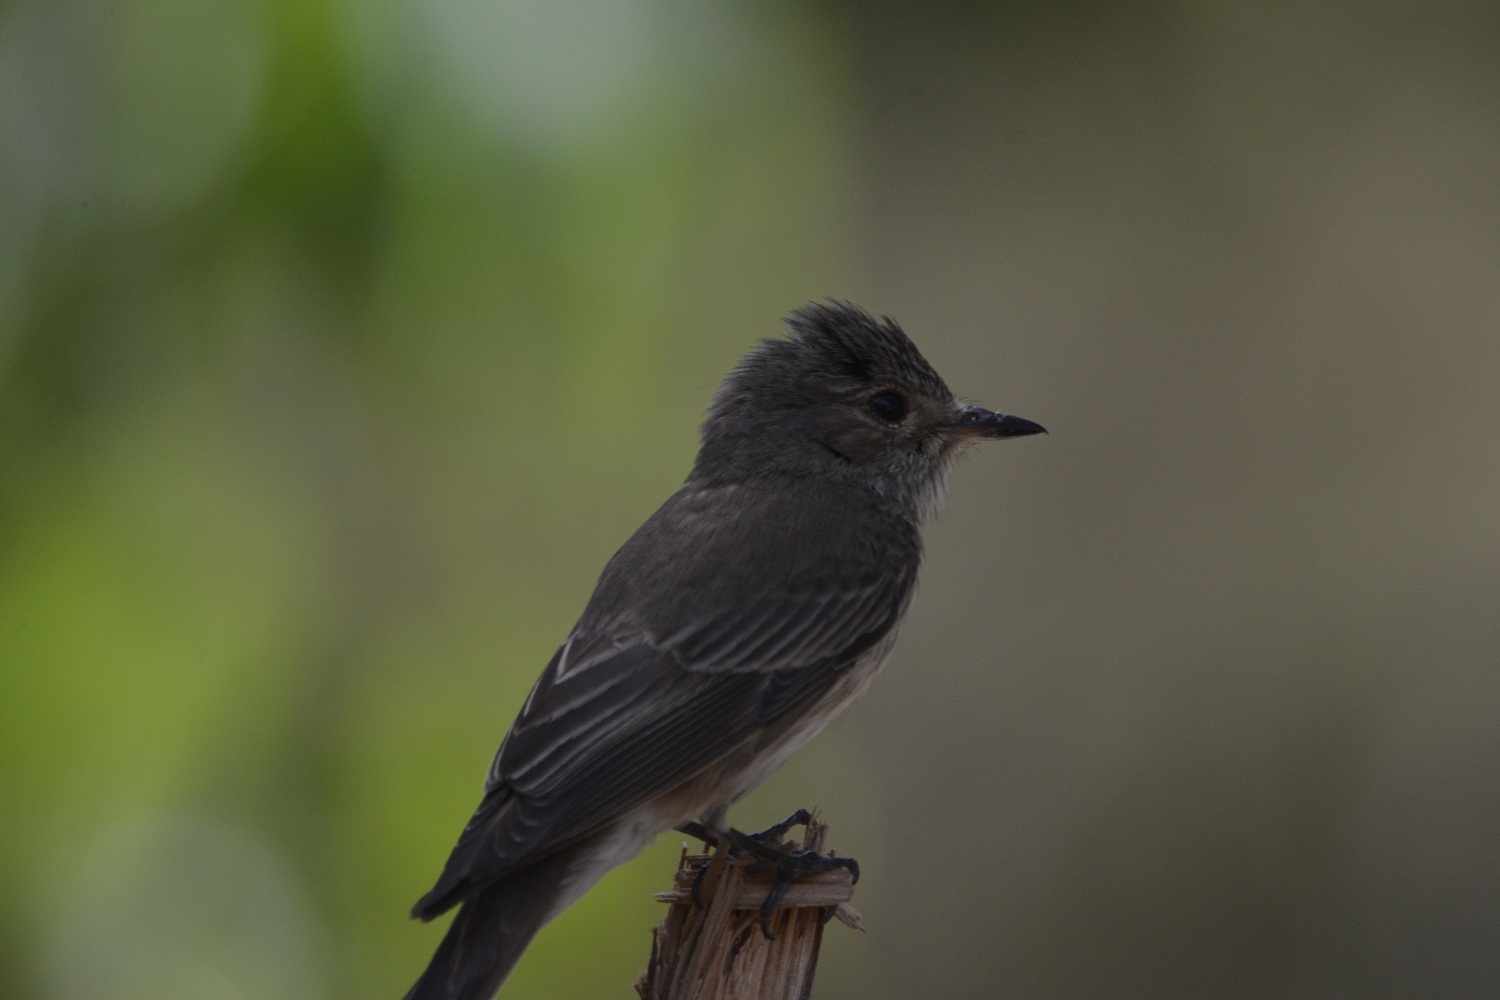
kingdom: Animalia
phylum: Chordata
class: Aves
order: Passeriformes
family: Muscicapidae
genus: Muscicapa
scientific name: Muscicapa striata
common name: Spotted flycatcher
